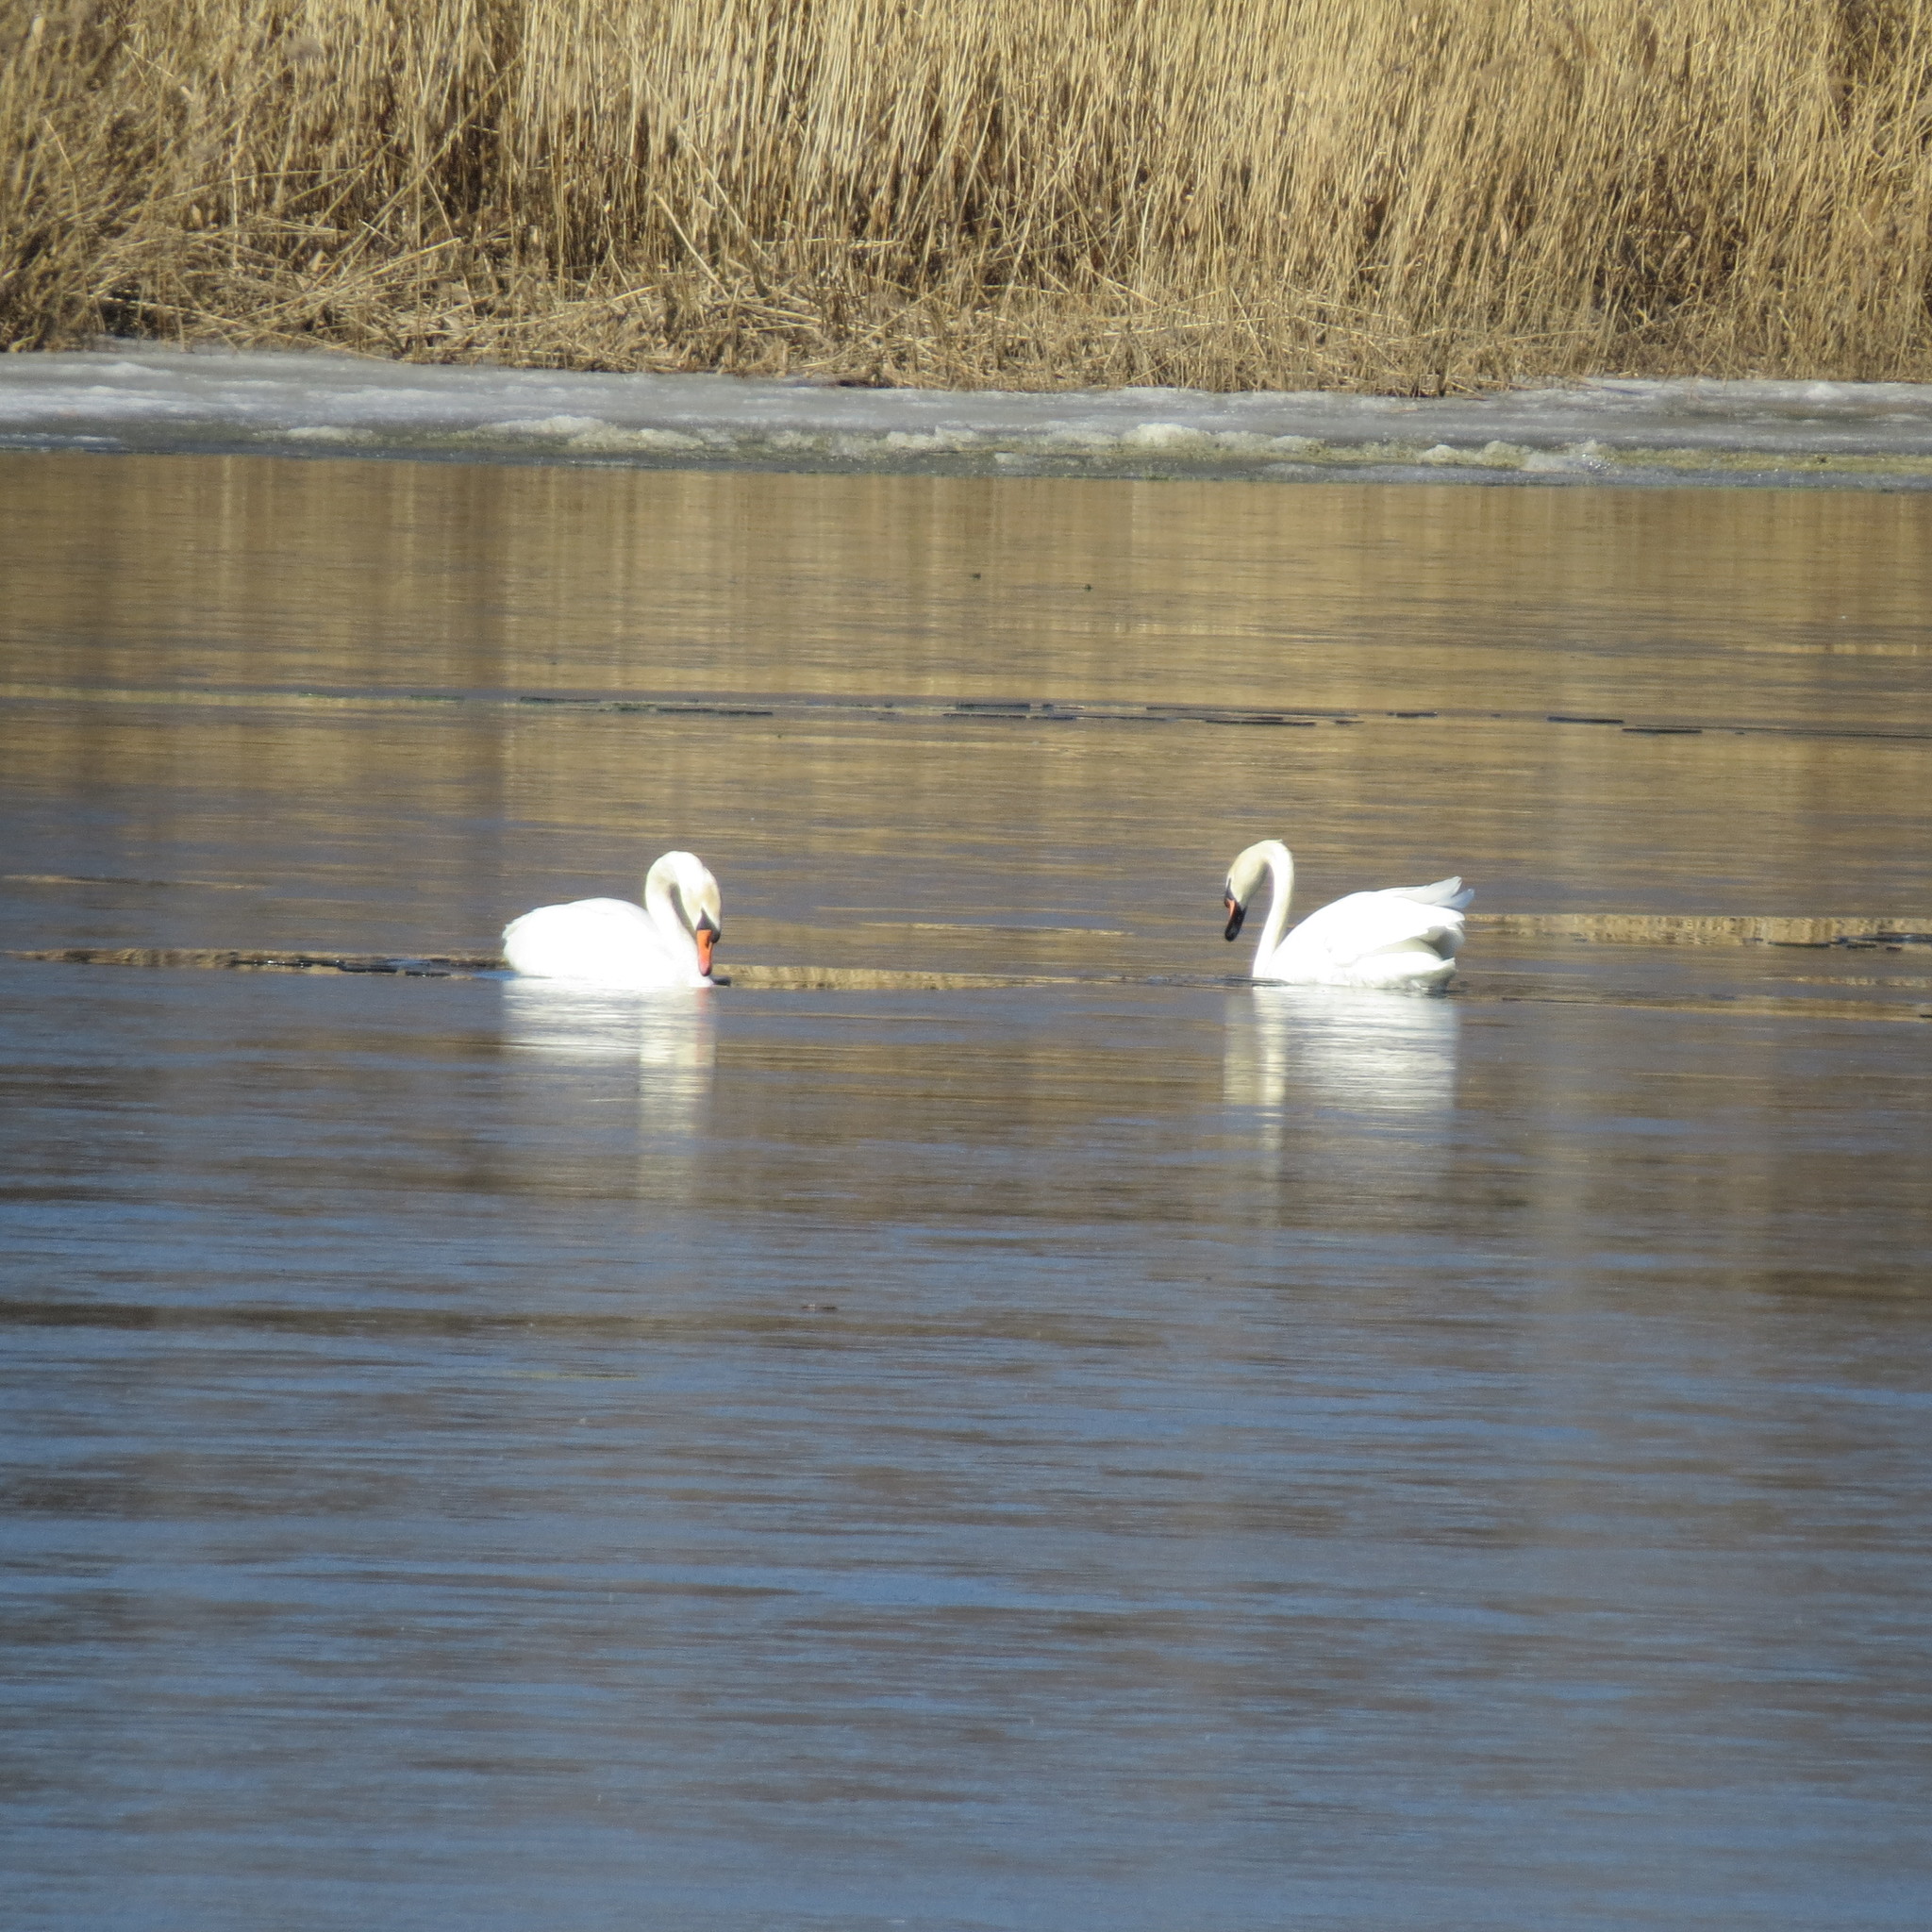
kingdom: Animalia
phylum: Chordata
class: Aves
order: Anseriformes
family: Anatidae
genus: Cygnus
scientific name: Cygnus olor
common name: Mute swan
